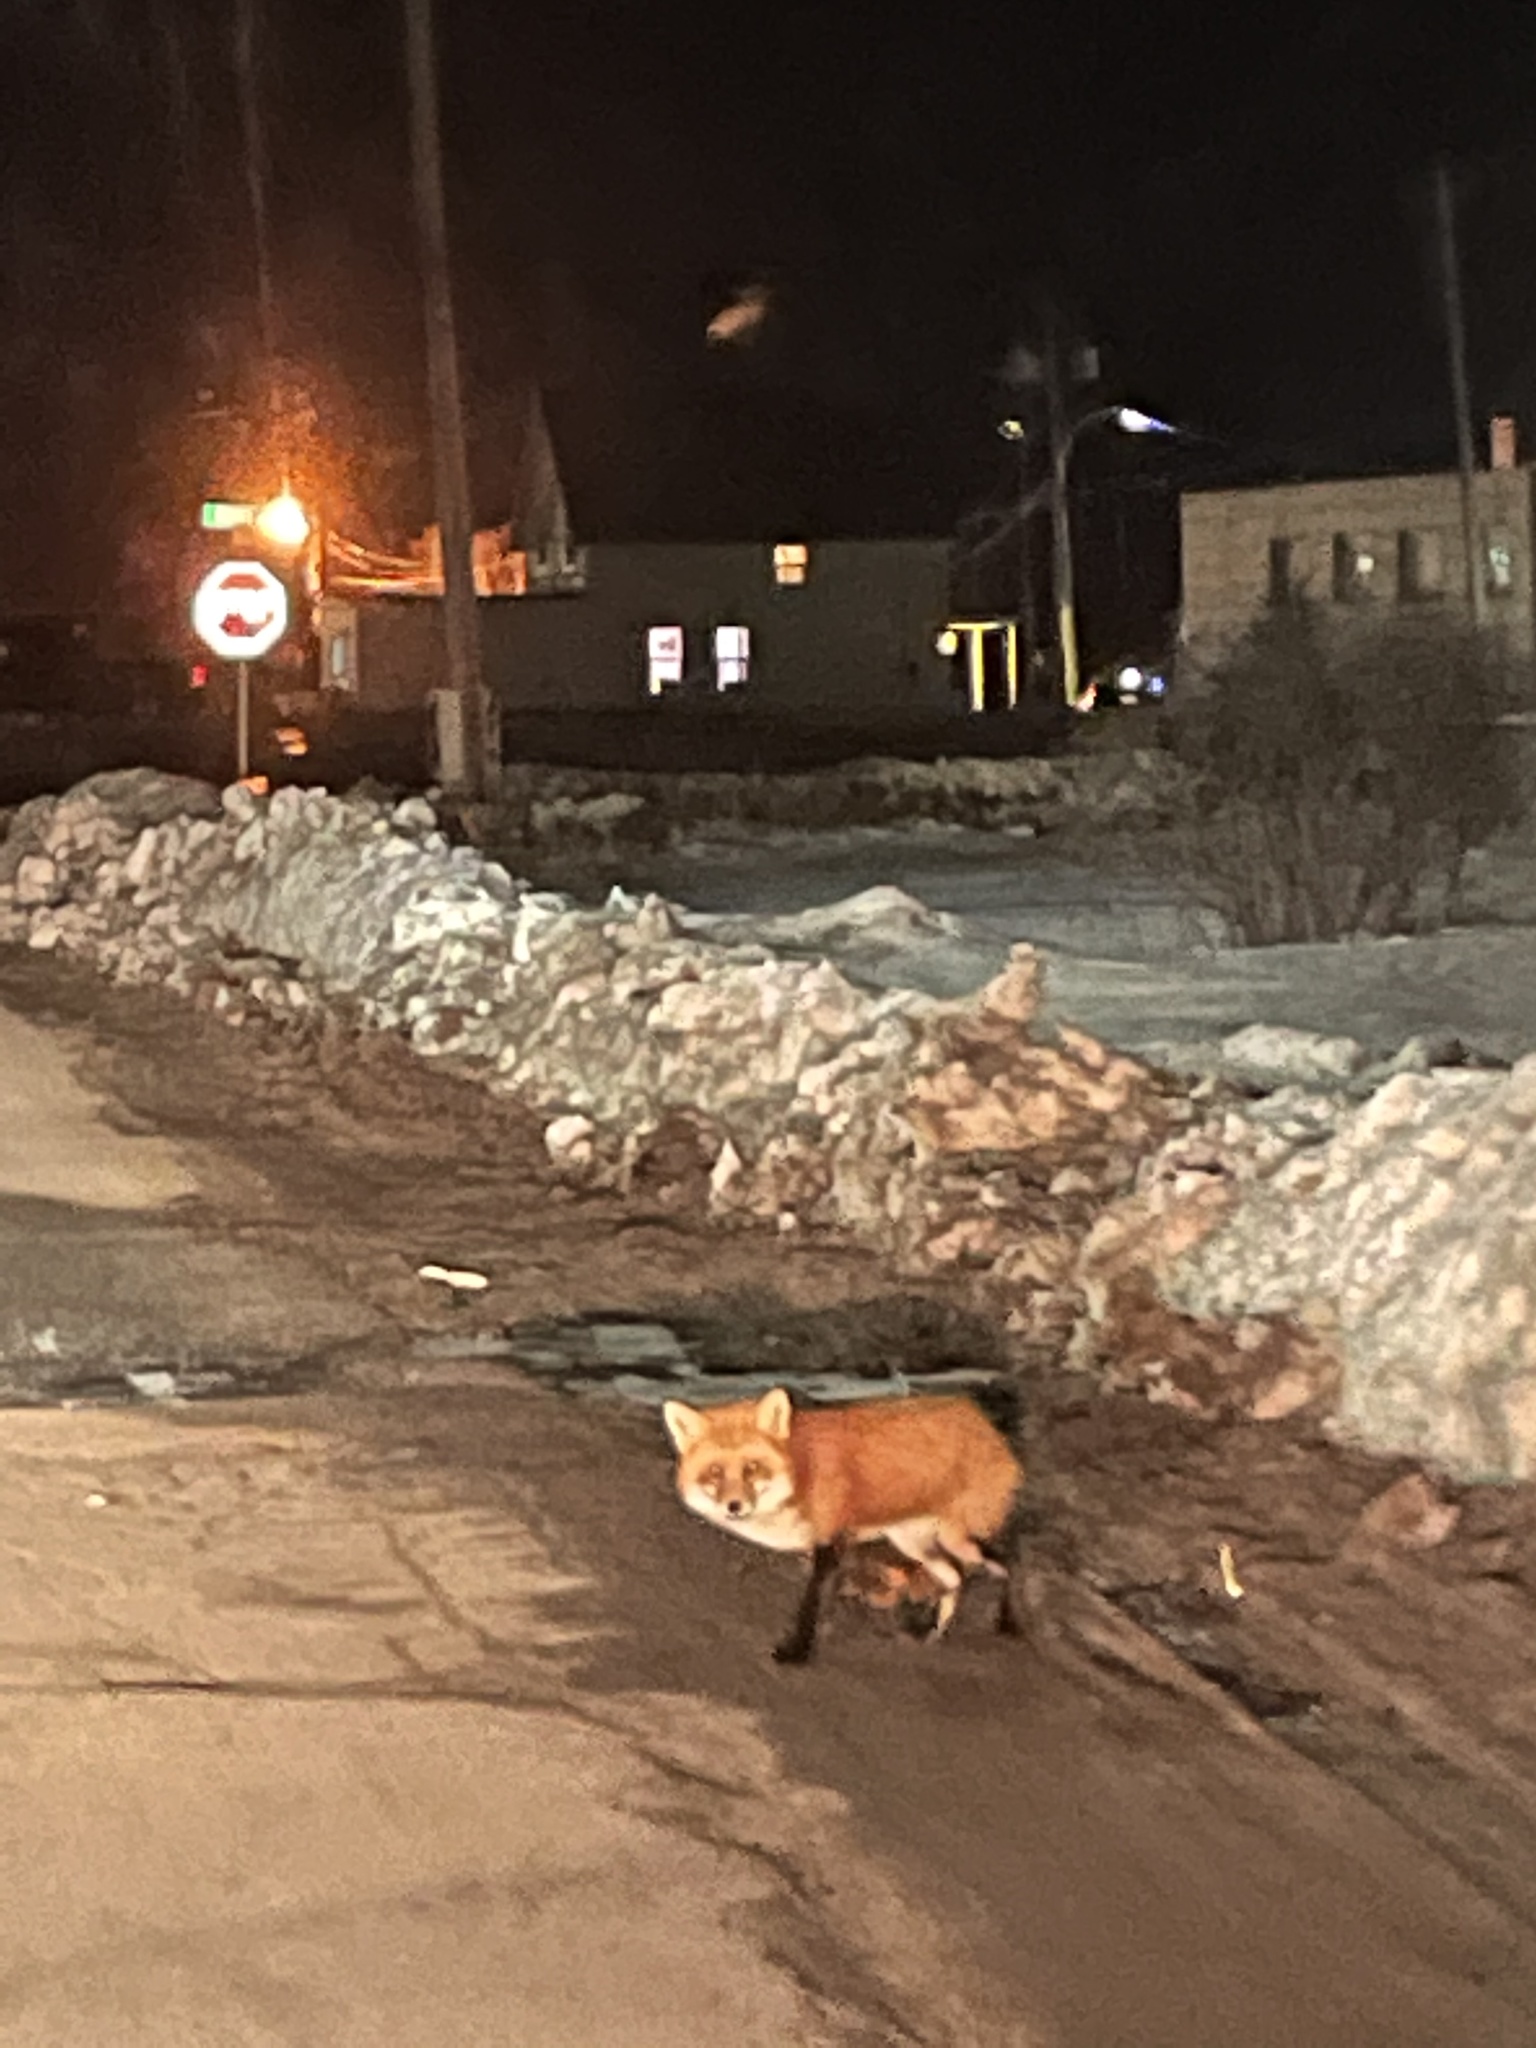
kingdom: Animalia
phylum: Chordata
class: Mammalia
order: Carnivora
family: Canidae
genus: Vulpes
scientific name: Vulpes vulpes
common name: Red fox
